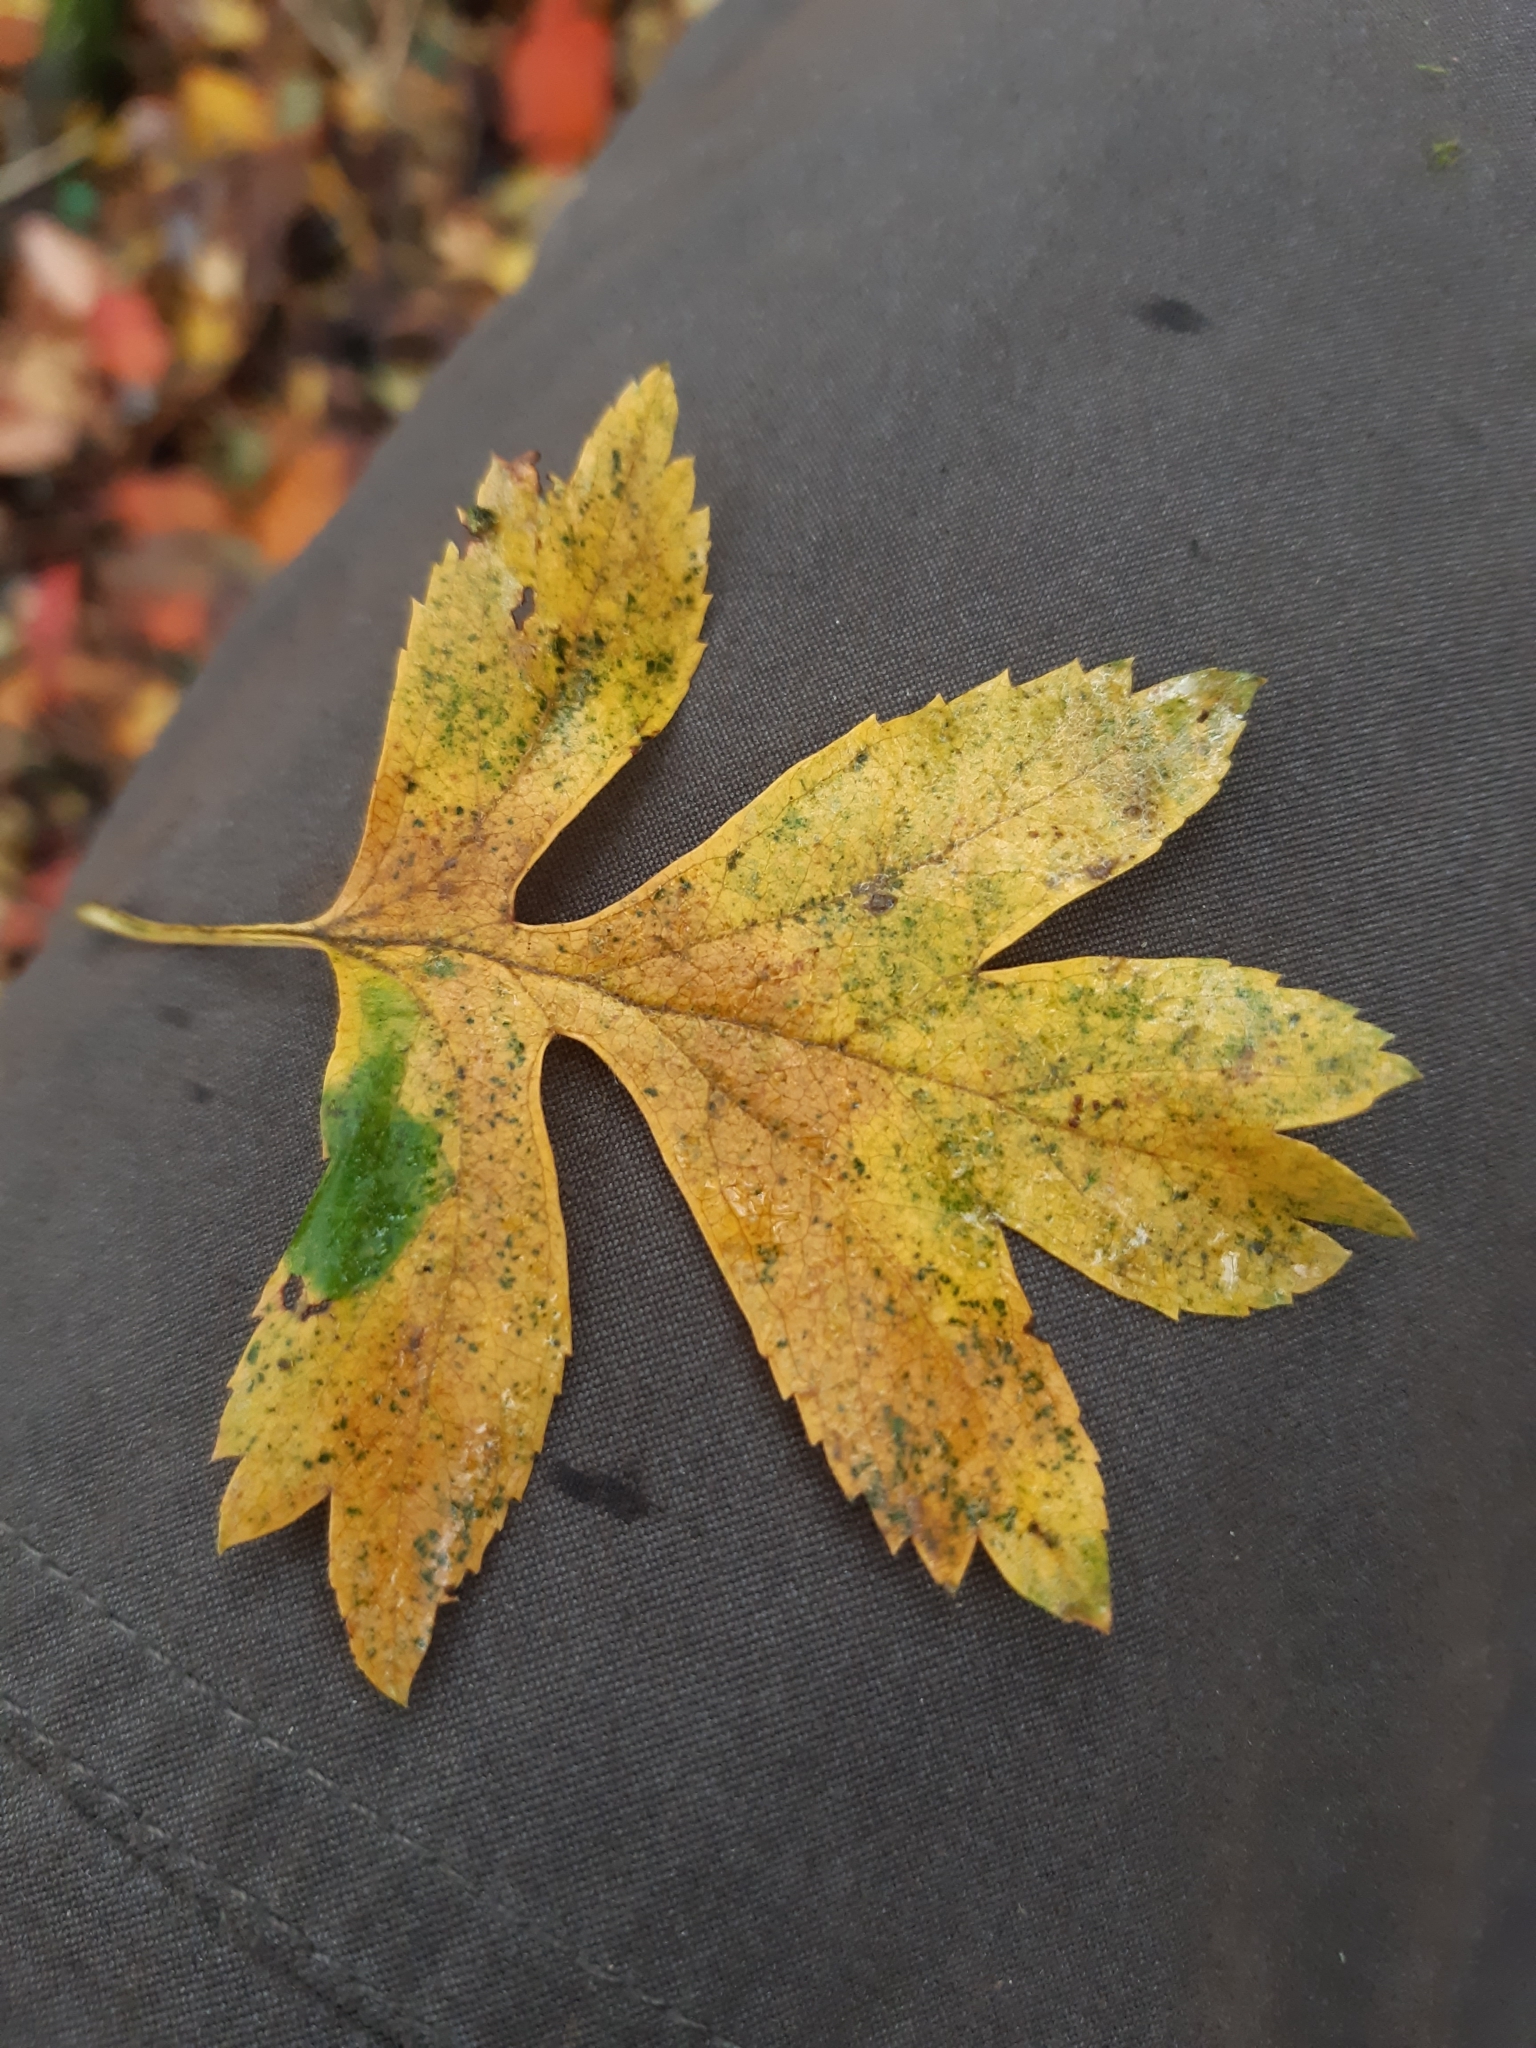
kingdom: Plantae
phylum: Tracheophyta
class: Magnoliopsida
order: Rosales
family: Rosaceae
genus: Crataegus
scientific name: Crataegus monogyna
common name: Hawthorn
